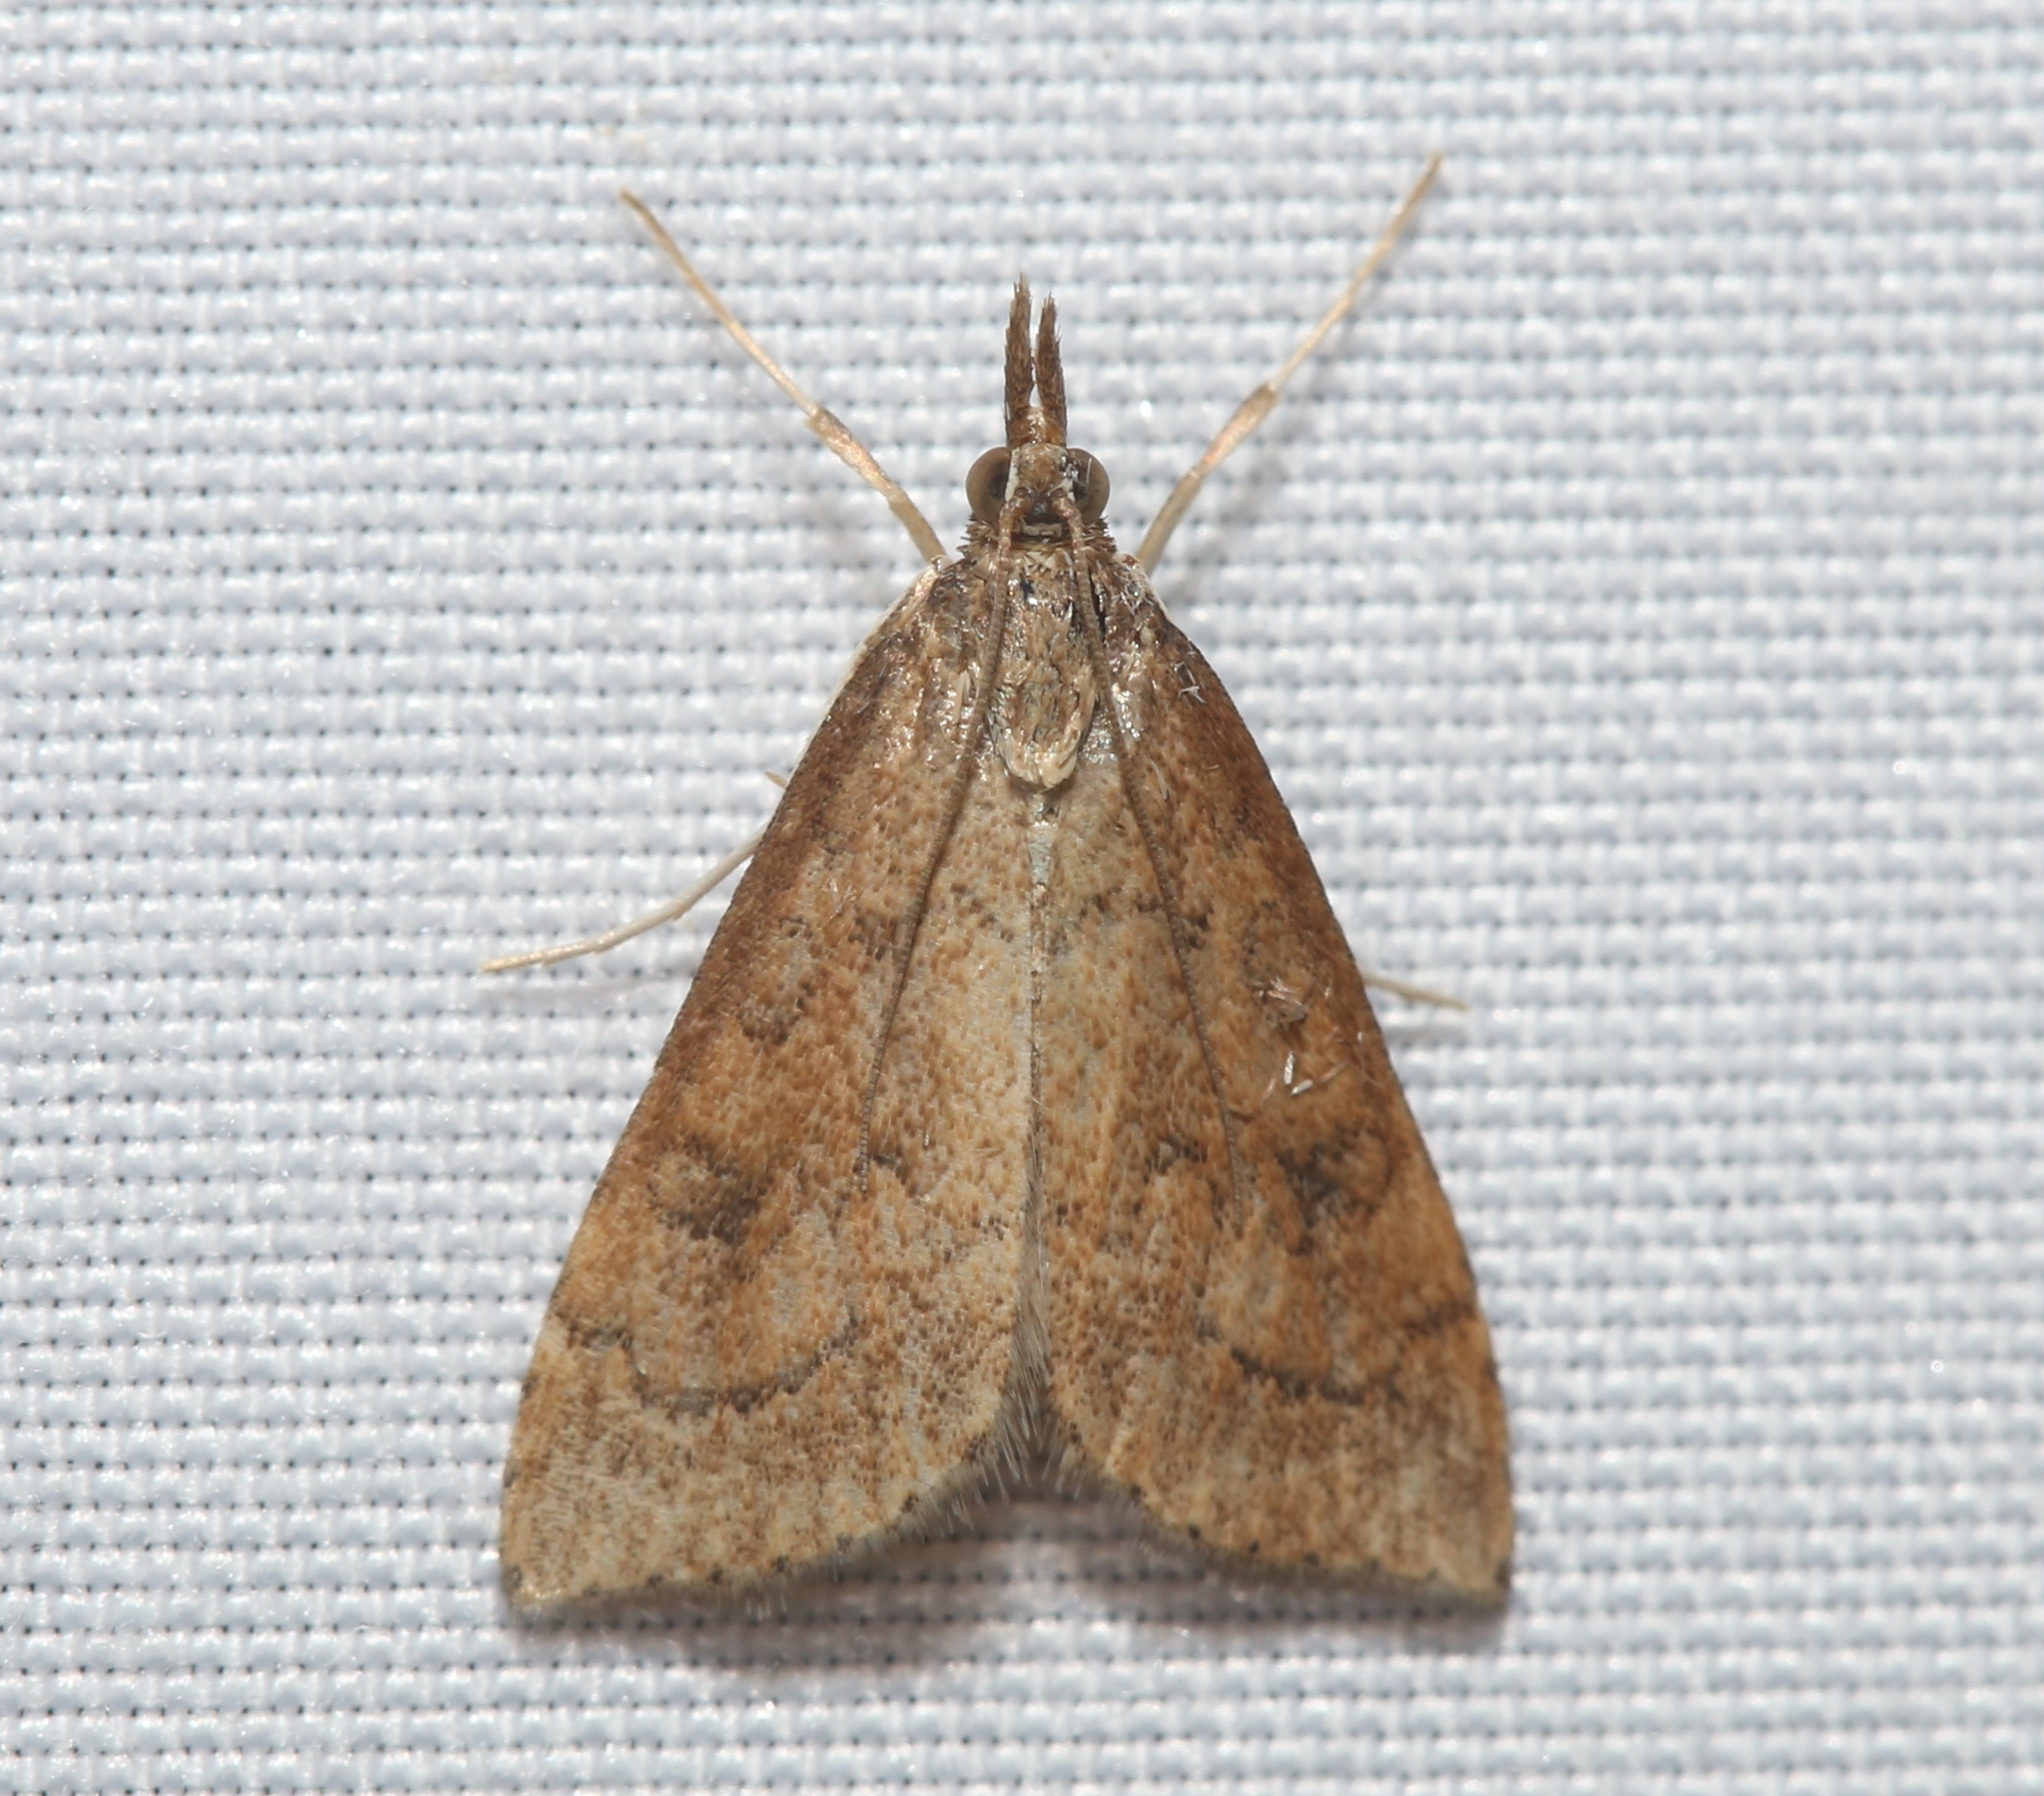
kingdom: Animalia
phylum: Arthropoda
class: Insecta
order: Lepidoptera
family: Crambidae
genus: Udea
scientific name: Udea rubigalis
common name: Celery leaftier moth
